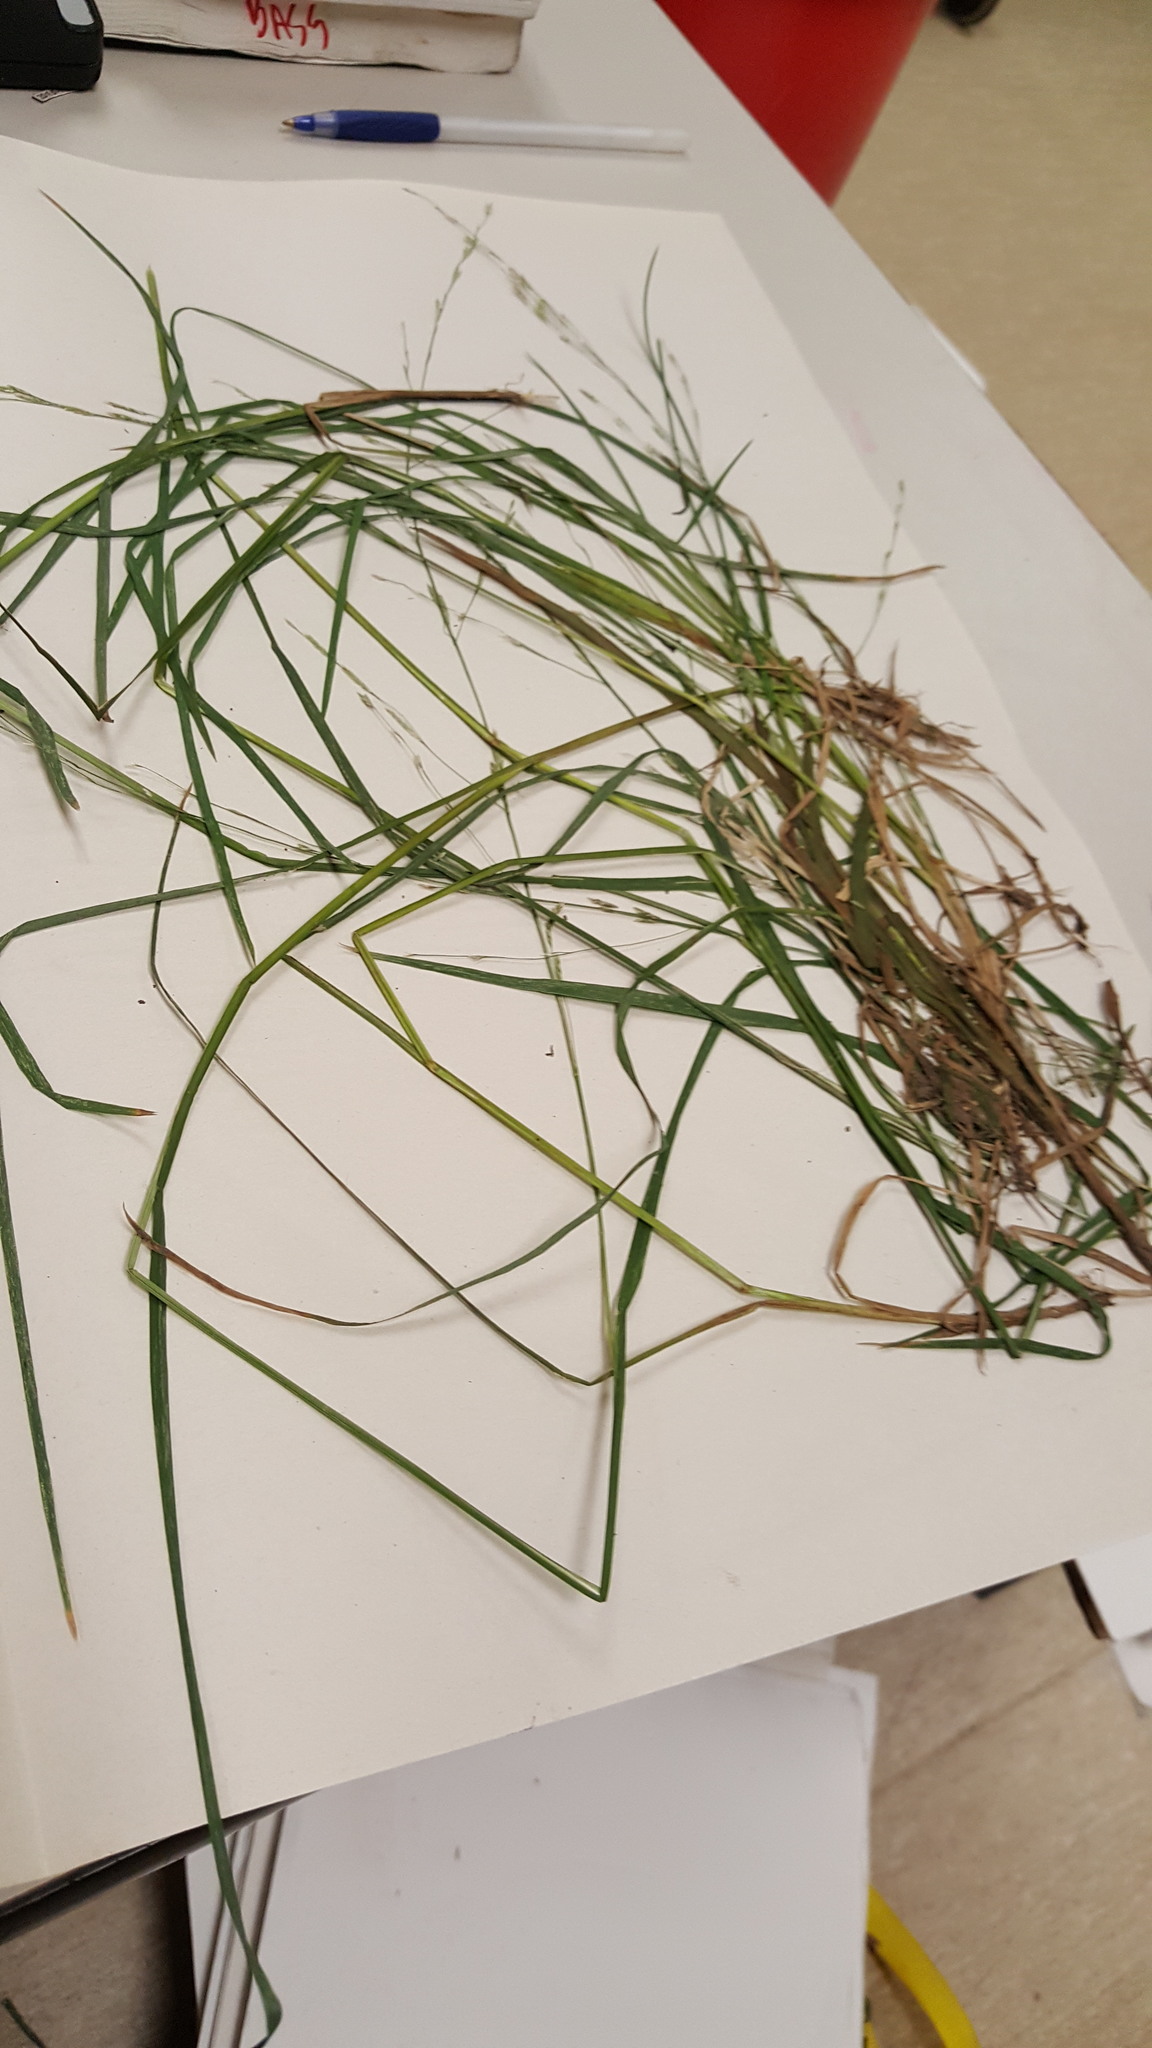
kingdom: Plantae
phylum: Tracheophyta
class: Liliopsida
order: Poales
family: Poaceae
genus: Glyceria
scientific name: Glyceria borealis
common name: Boreal glyceria
